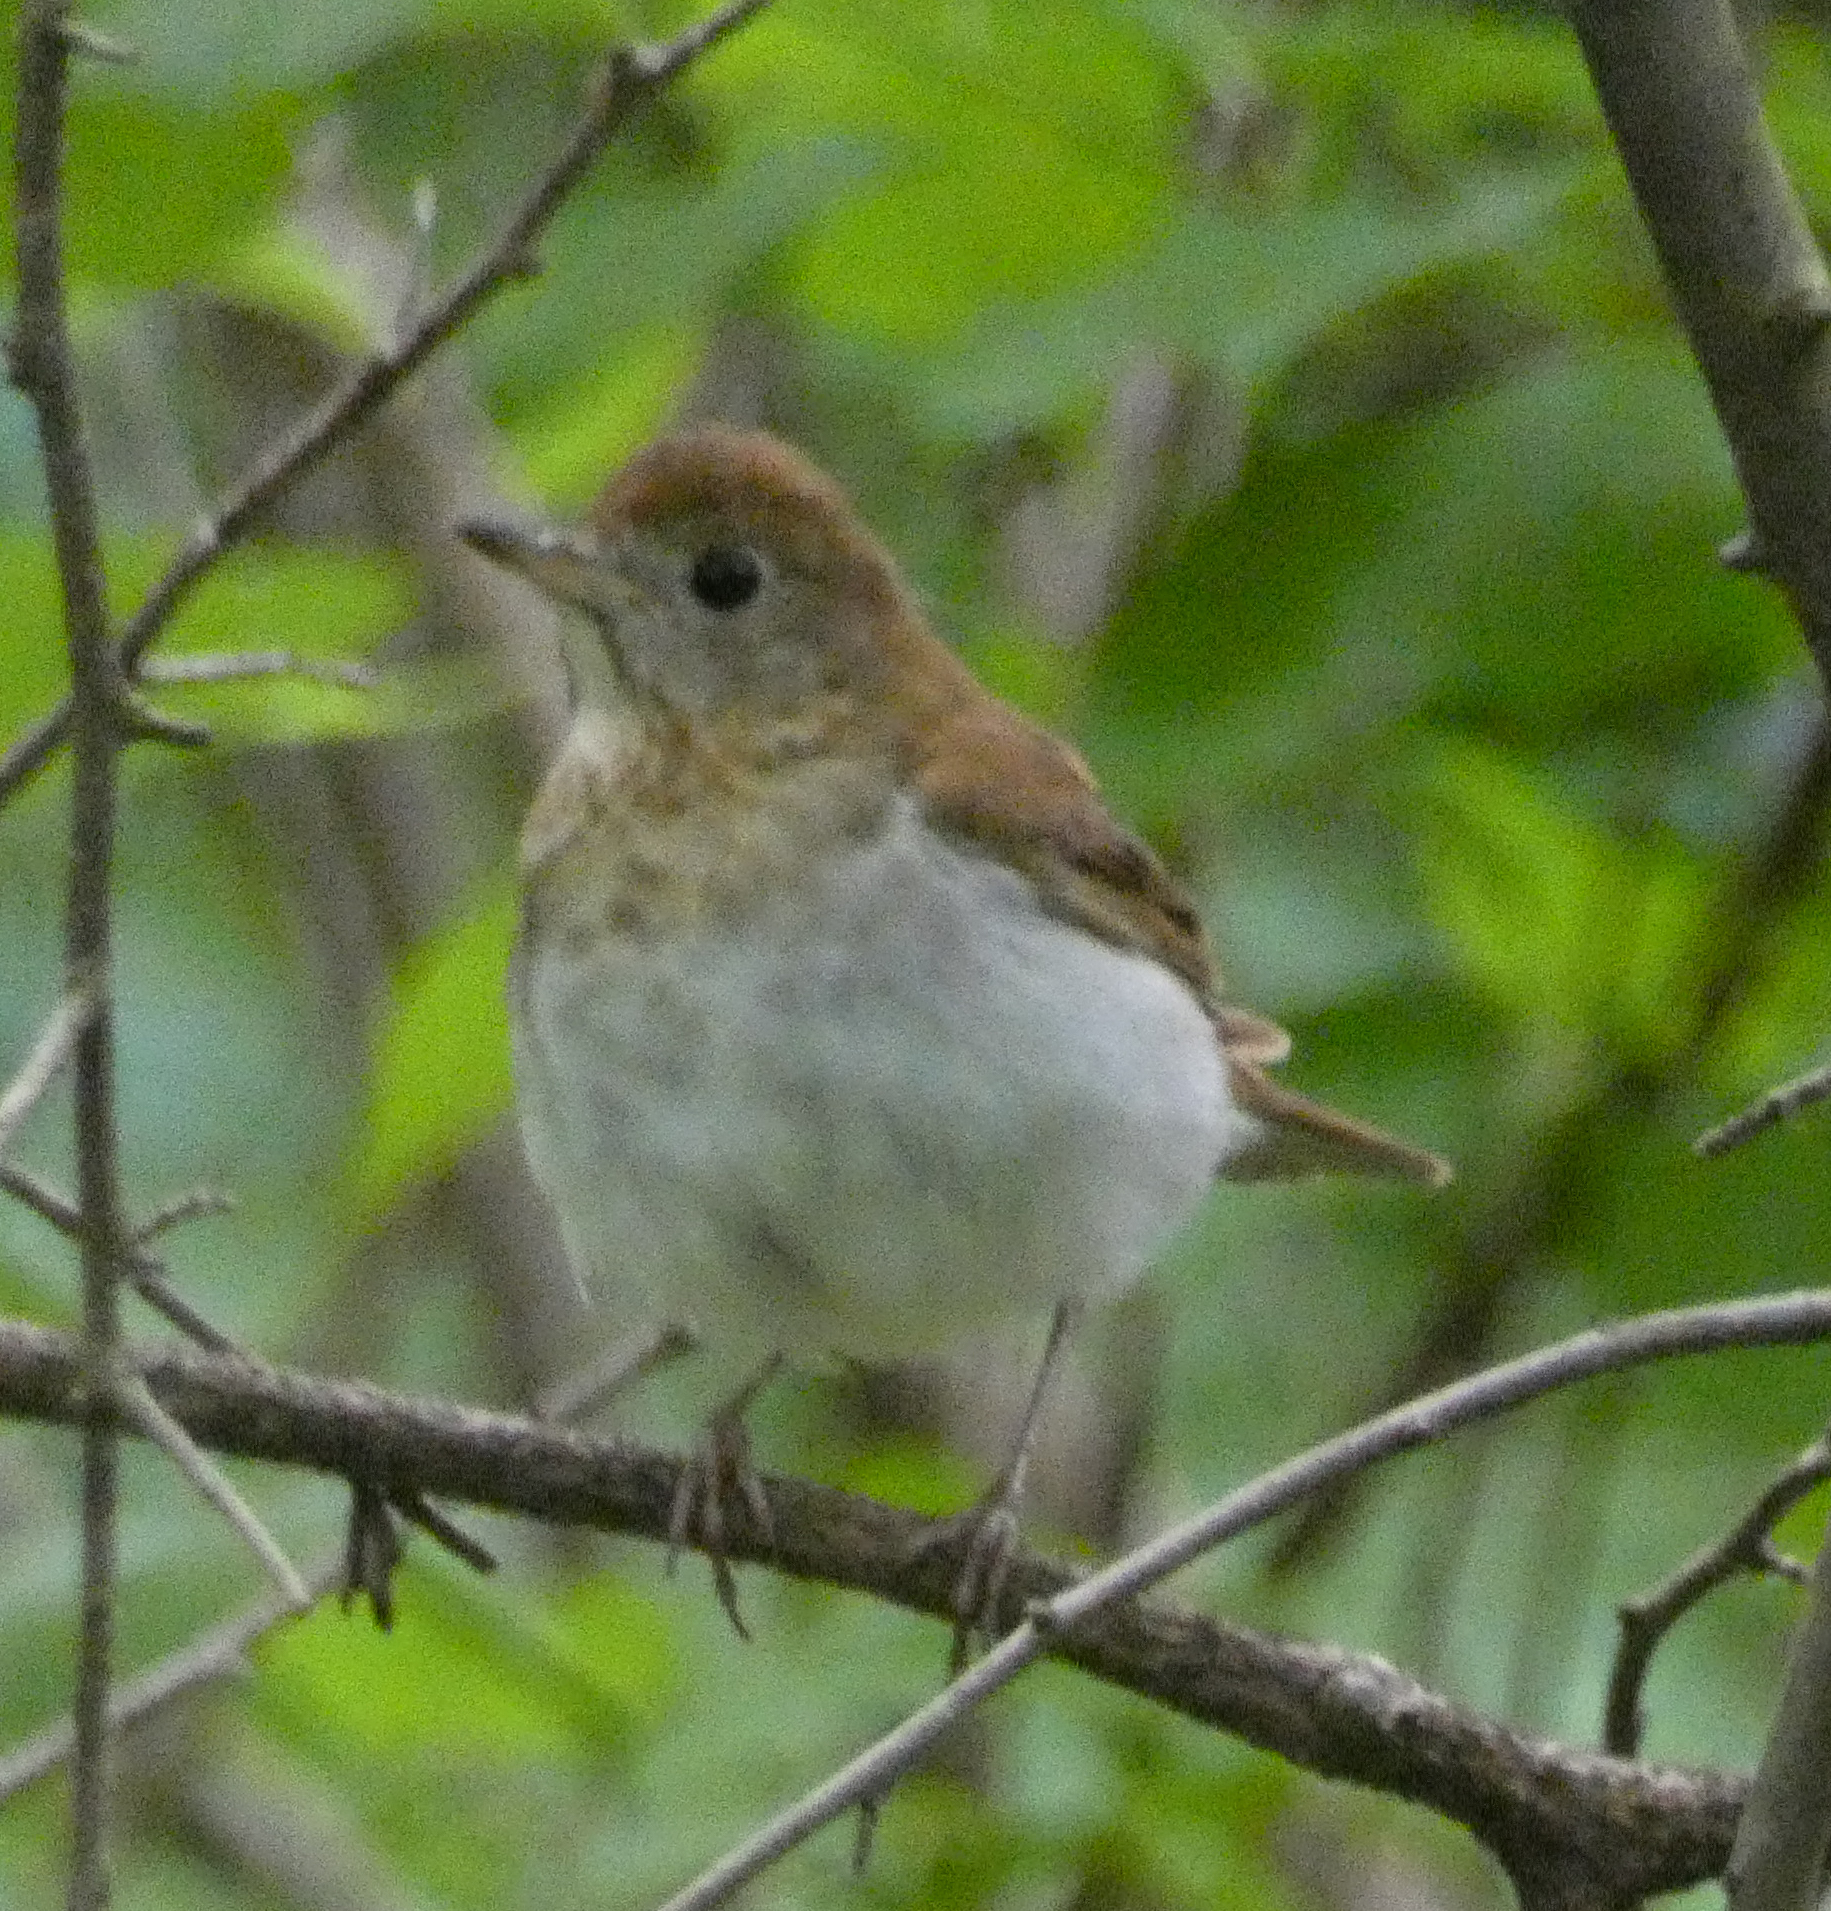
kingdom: Animalia
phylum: Chordata
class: Aves
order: Passeriformes
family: Turdidae
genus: Catharus
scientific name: Catharus fuscescens
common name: Veery
